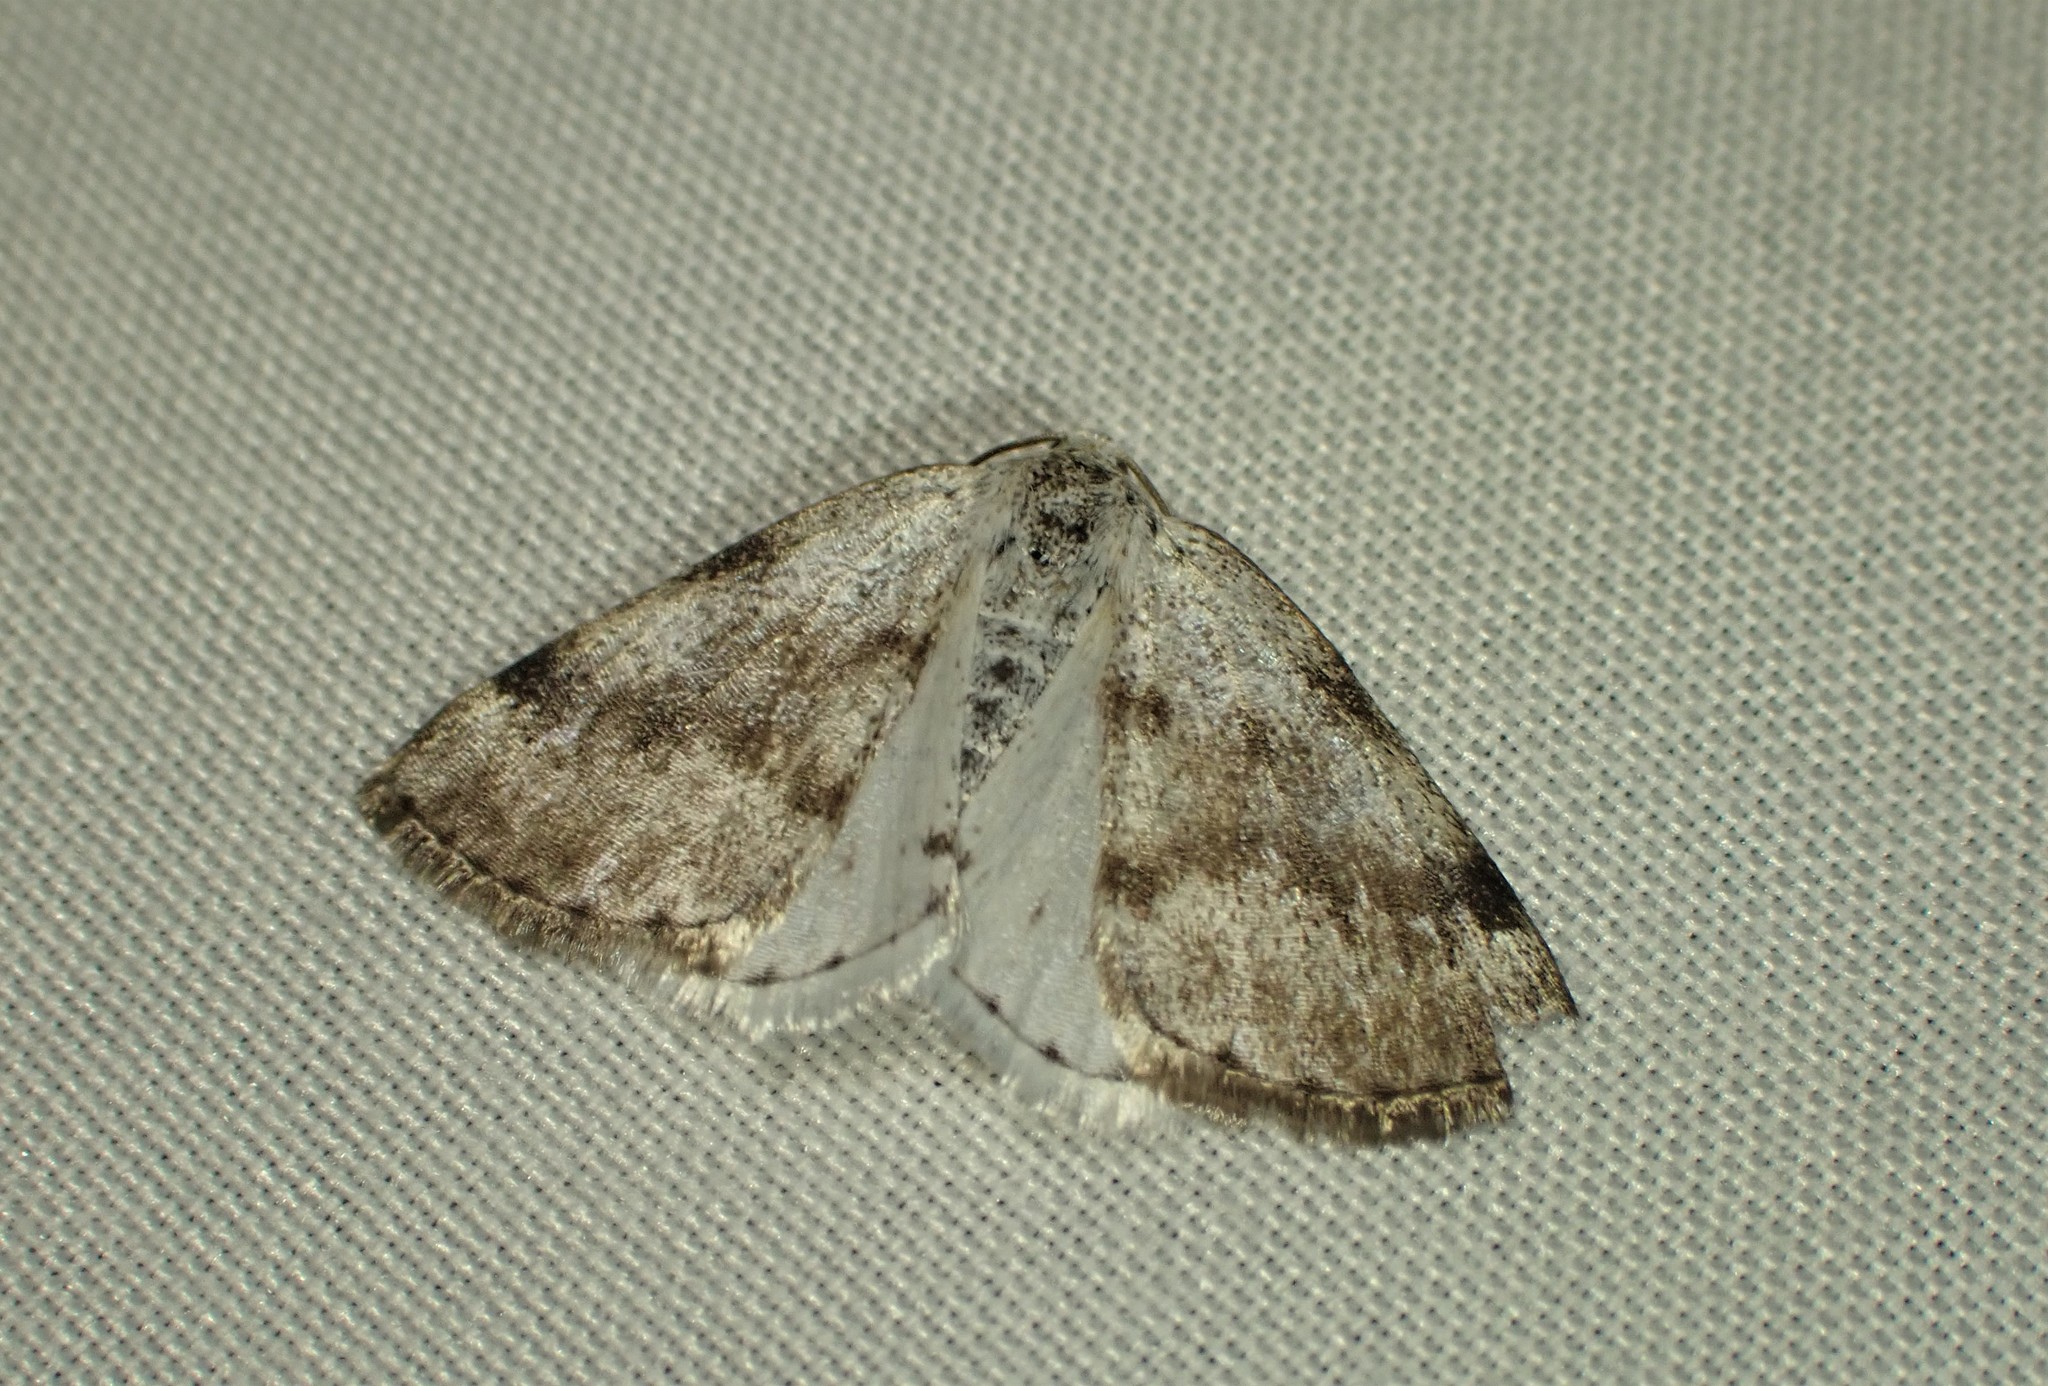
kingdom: Animalia
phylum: Arthropoda
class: Insecta
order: Lepidoptera
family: Geometridae
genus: Lomographa
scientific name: Lomographa semiclarata
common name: Bluish spring moth
